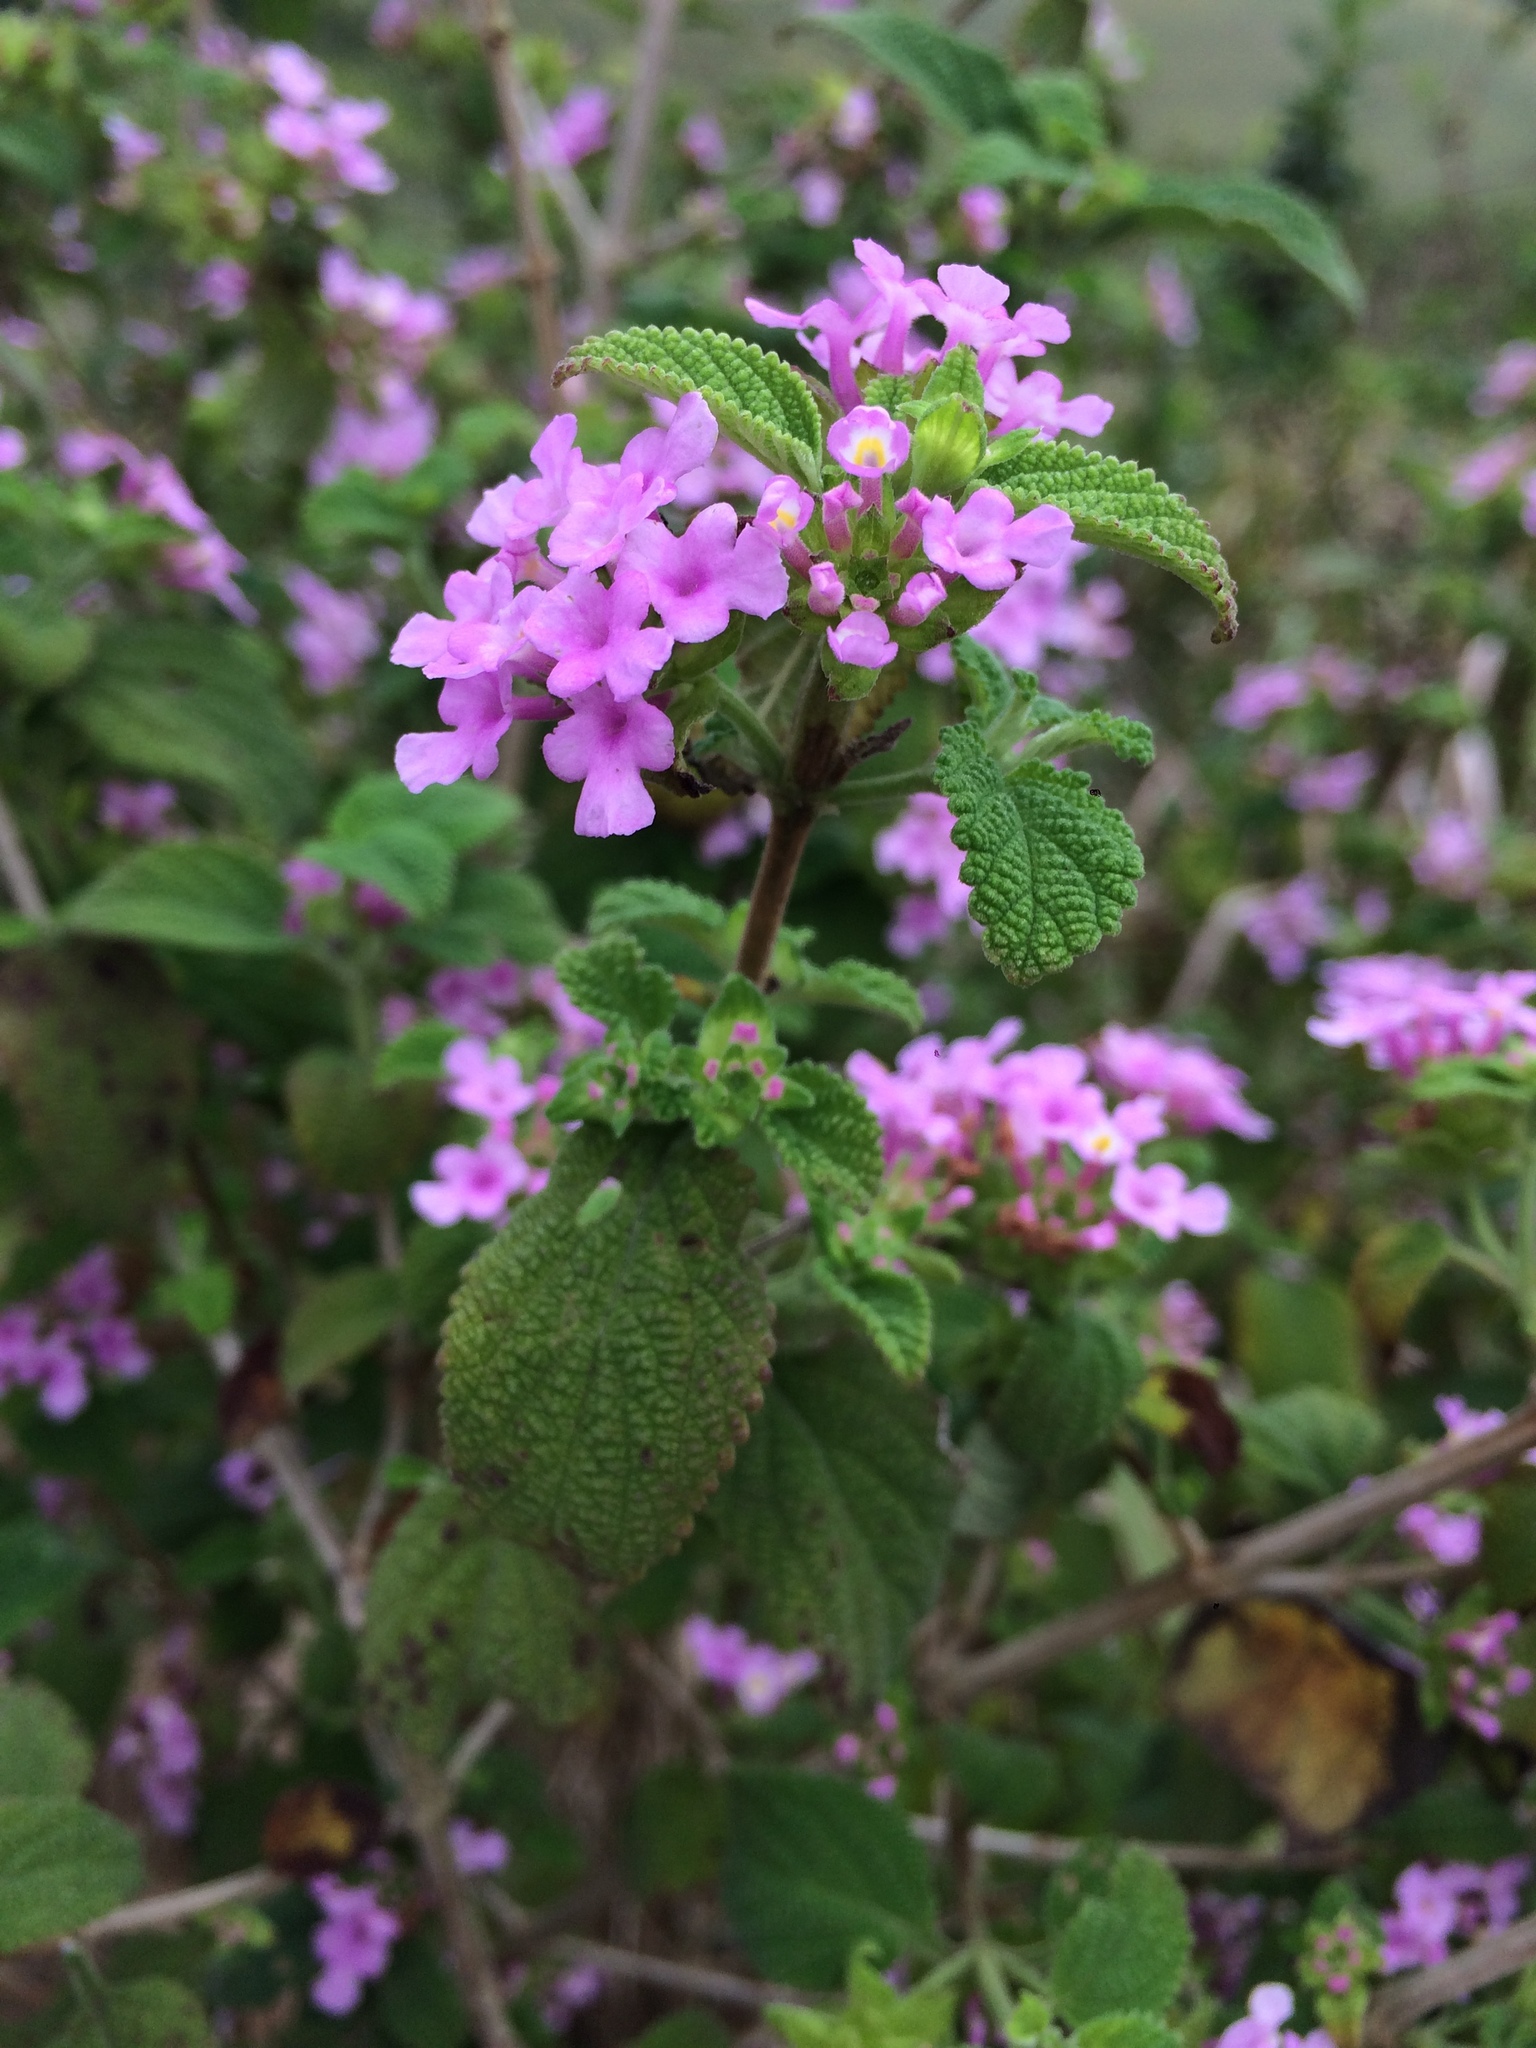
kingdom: Plantae
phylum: Tracheophyta
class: Magnoliopsida
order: Lamiales
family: Verbenaceae
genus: Lantana
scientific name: Lantana fucata
